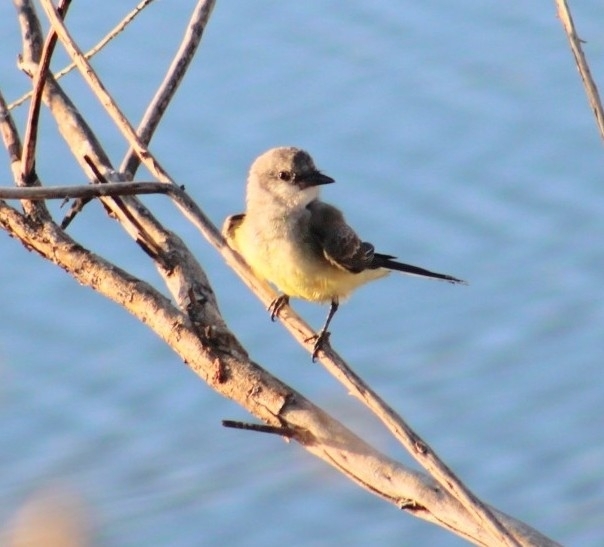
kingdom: Animalia
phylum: Chordata
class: Aves
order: Passeriformes
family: Tyrannidae
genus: Tyrannus
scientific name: Tyrannus verticalis
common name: Western kingbird
